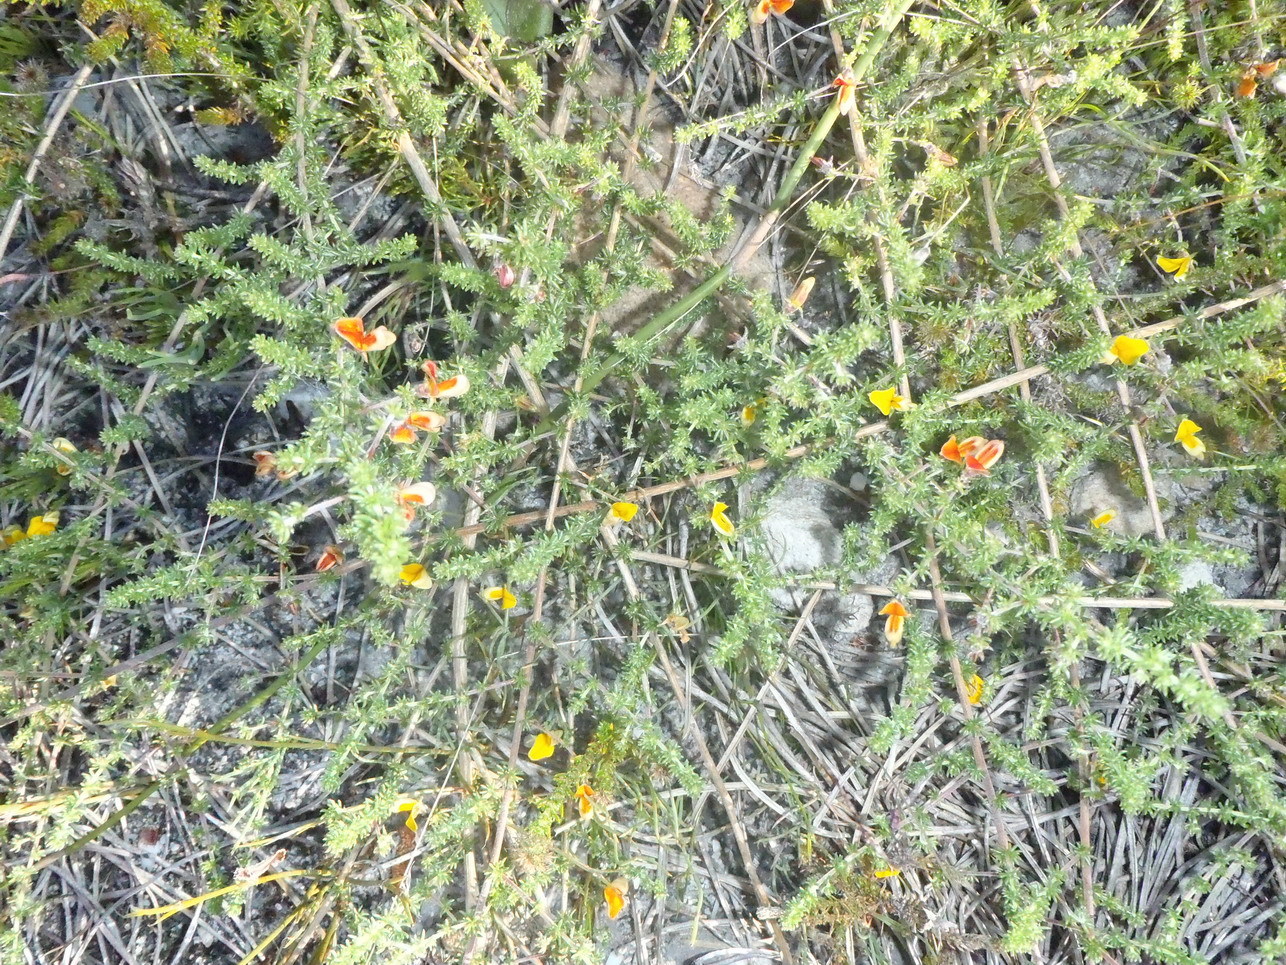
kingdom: Plantae
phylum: Tracheophyta
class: Magnoliopsida
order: Fabales
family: Fabaceae
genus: Aspalathus
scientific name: Aspalathus retroflexa
